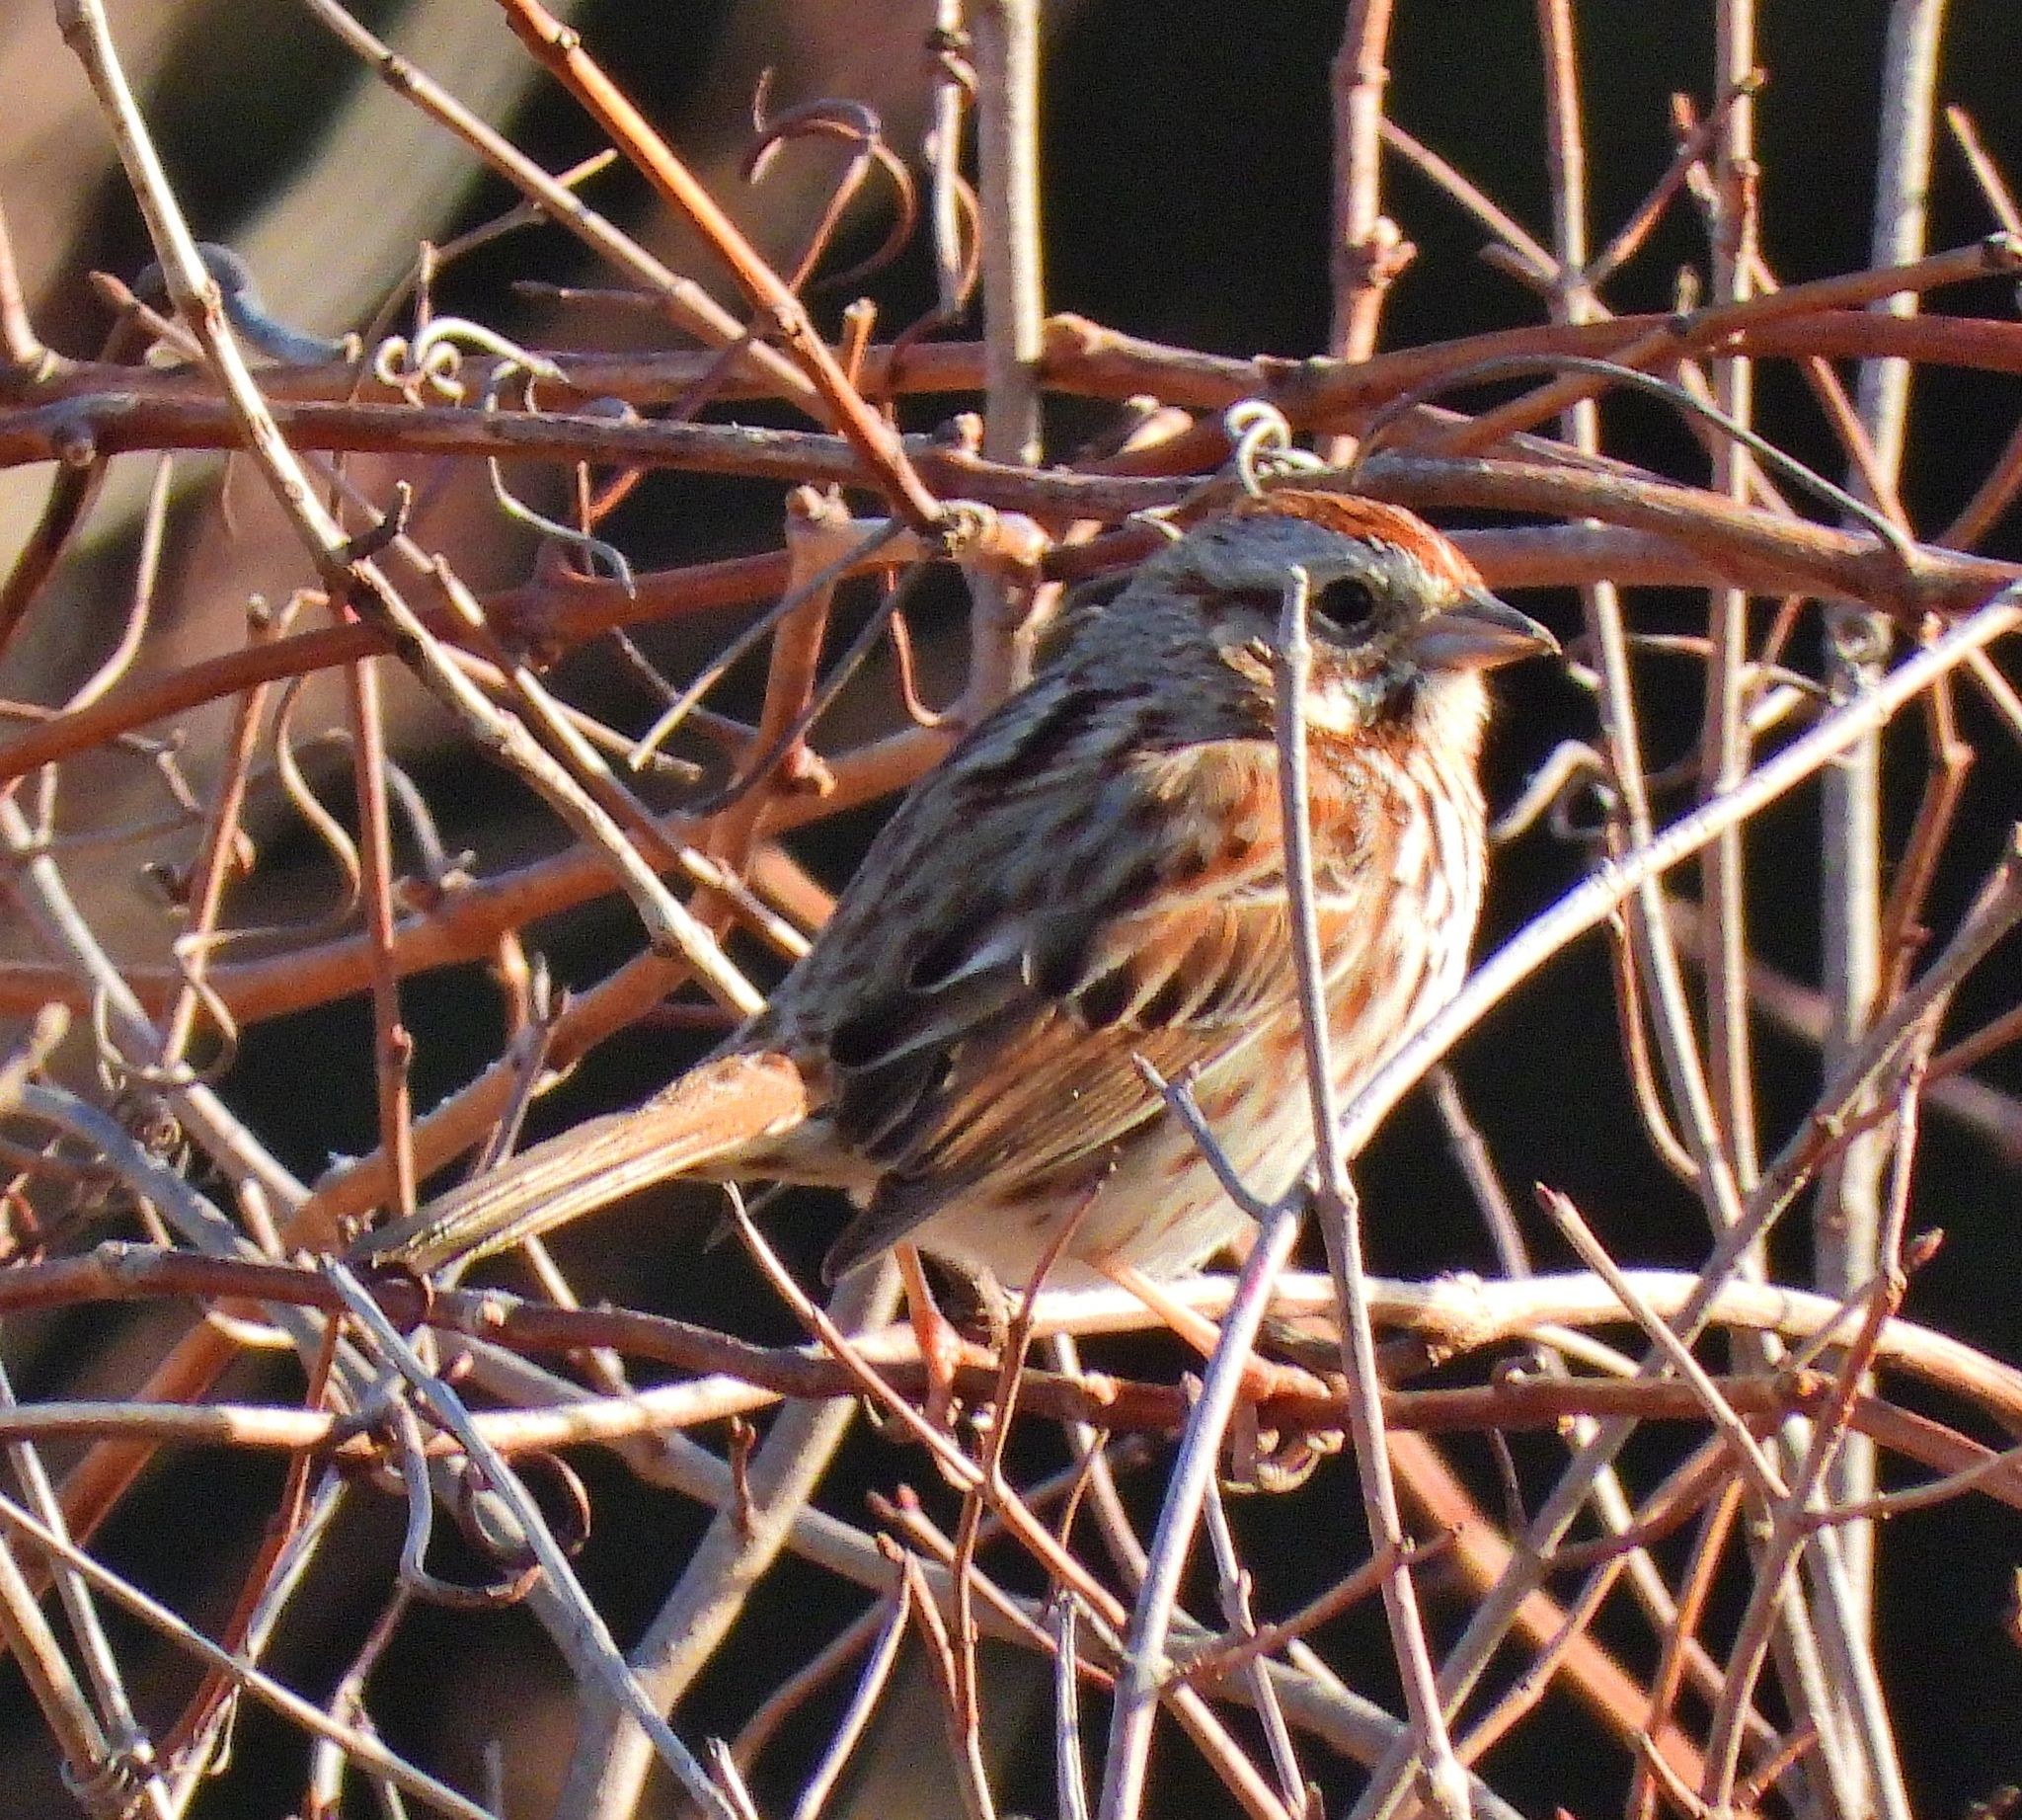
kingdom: Animalia
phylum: Chordata
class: Aves
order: Passeriformes
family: Passerellidae
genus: Melospiza
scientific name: Melospiza melodia
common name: Song sparrow
